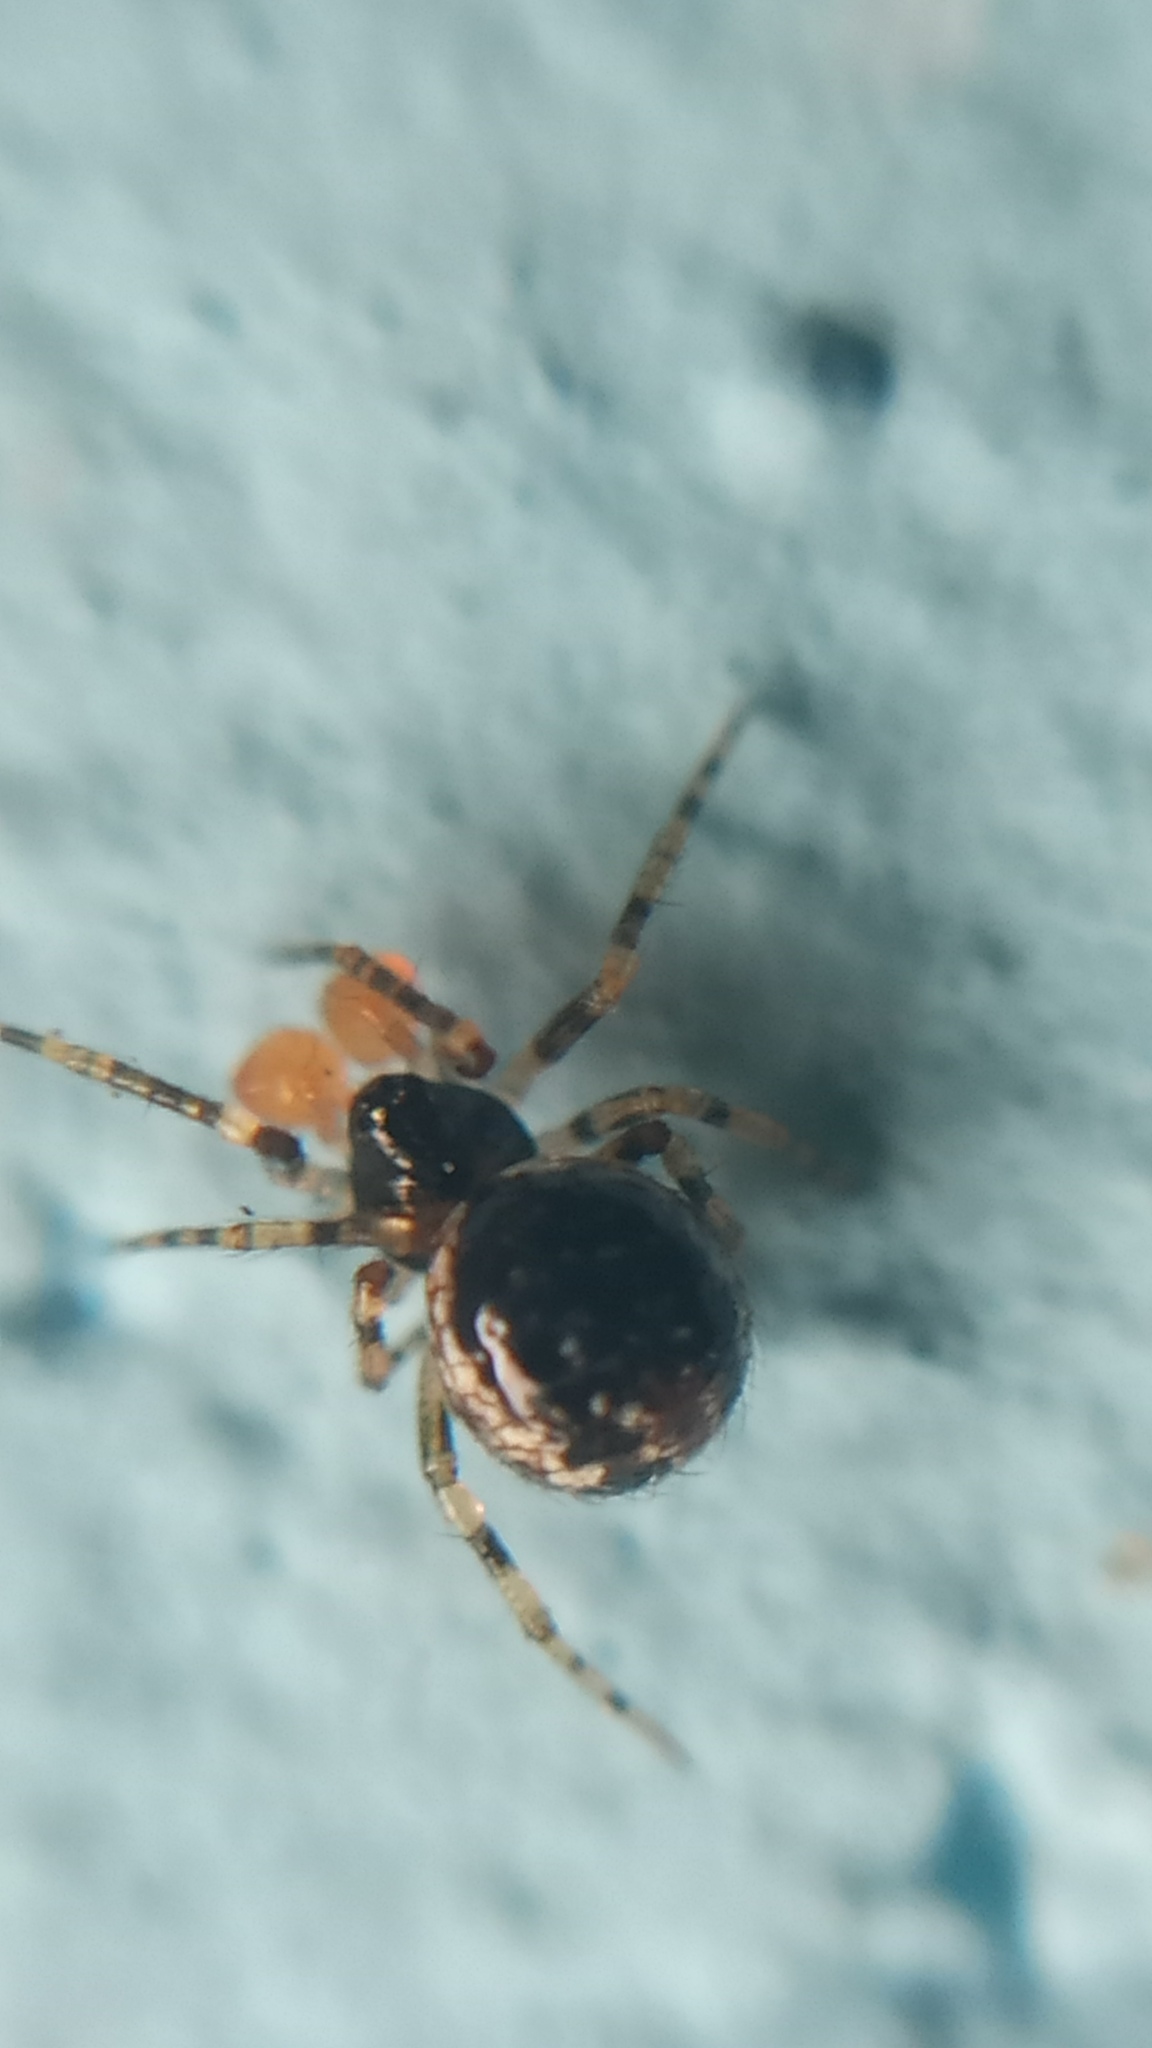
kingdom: Animalia
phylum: Arthropoda
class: Arachnida
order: Araneae
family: Theridiidae
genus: Sardinidion
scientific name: Sardinidion blackwalli
